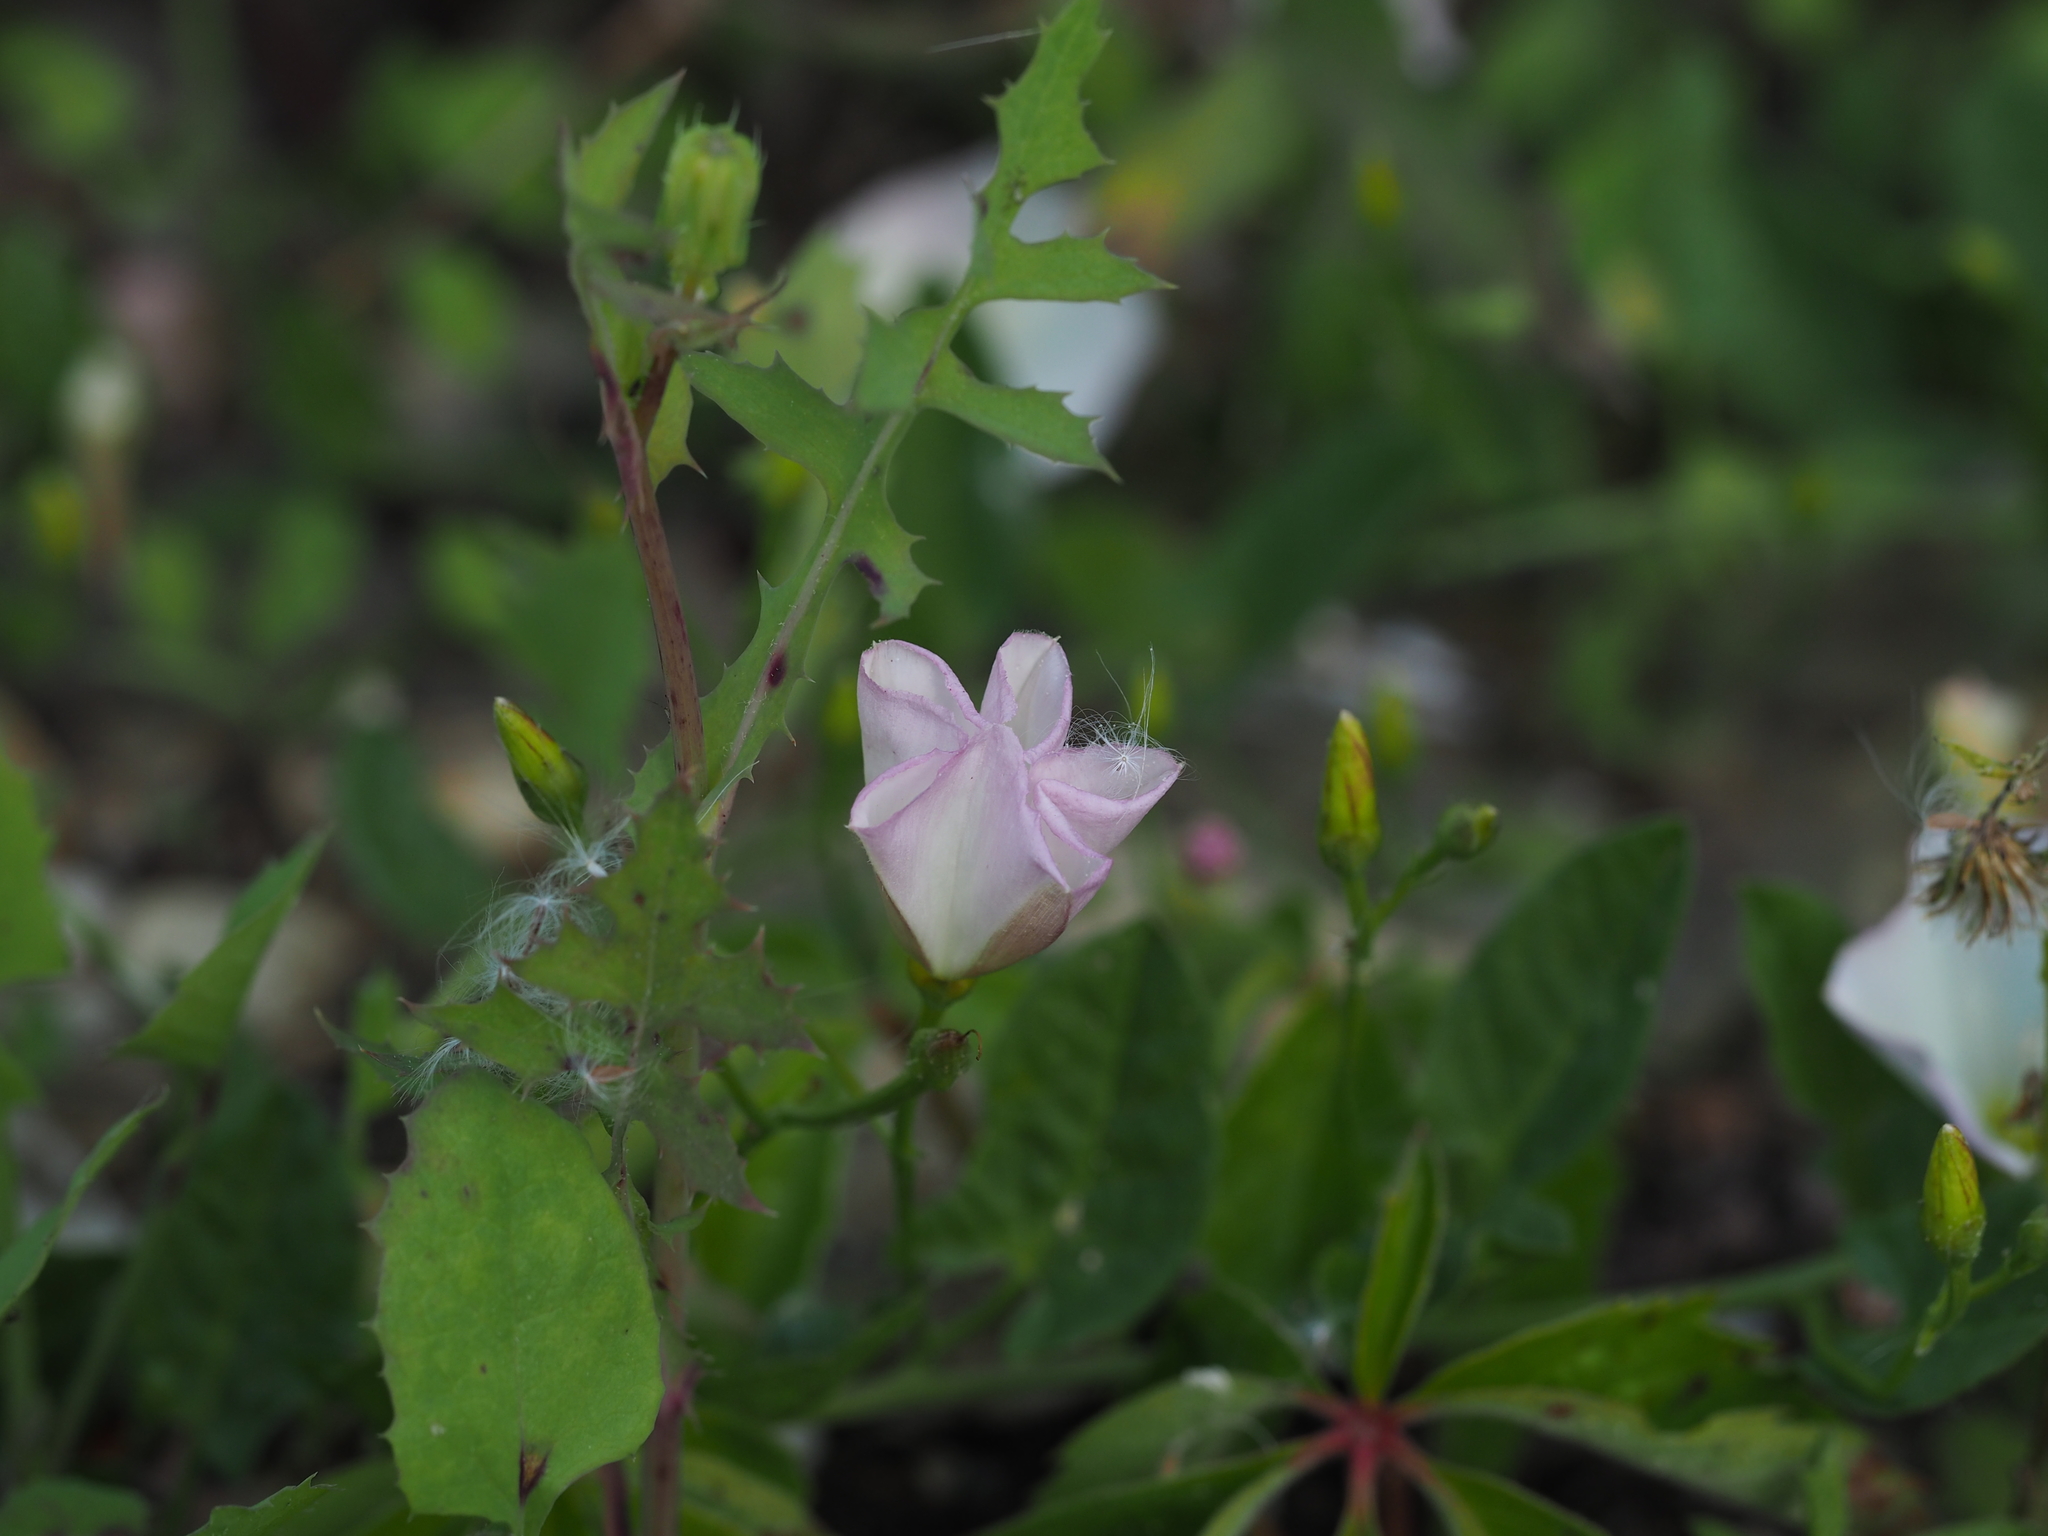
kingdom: Plantae
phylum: Tracheophyta
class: Magnoliopsida
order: Solanales
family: Convolvulaceae
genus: Convolvulus
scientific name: Convolvulus arvensis
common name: Field bindweed
